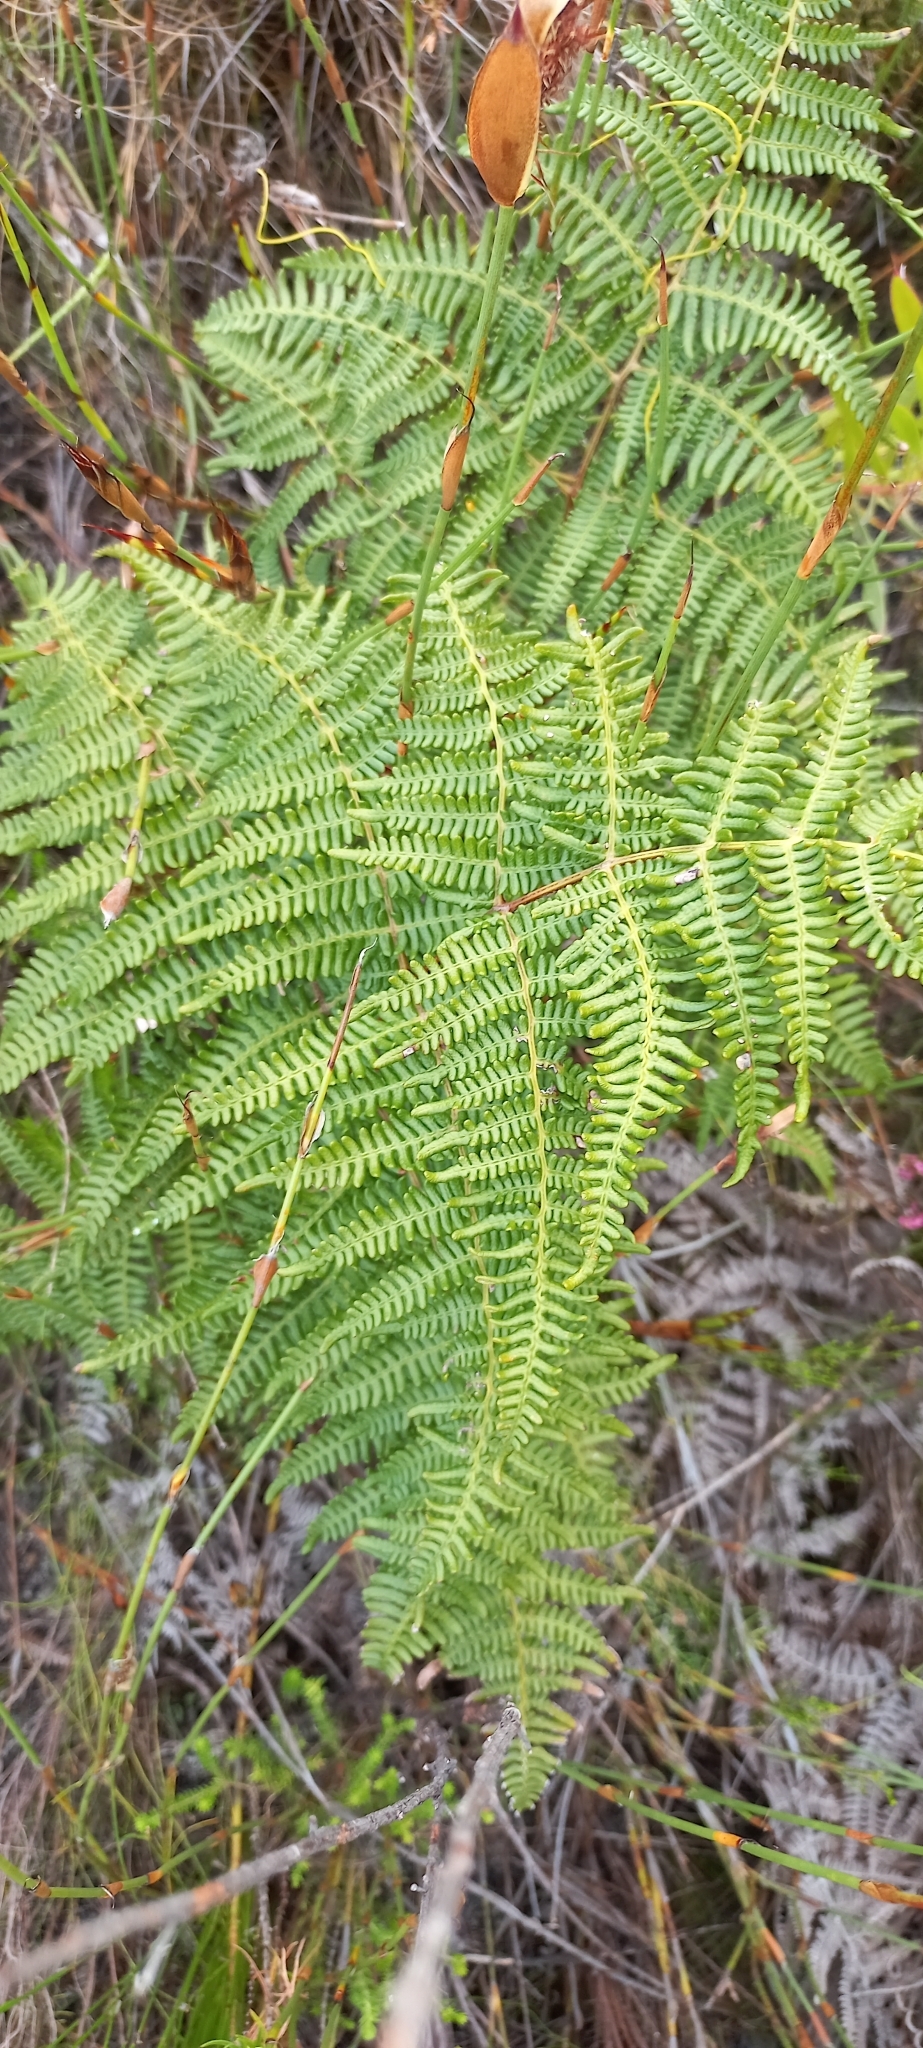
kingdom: Plantae
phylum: Tracheophyta
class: Polypodiopsida
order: Polypodiales
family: Dennstaedtiaceae
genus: Pteridium
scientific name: Pteridium aquilinum
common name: Bracken
